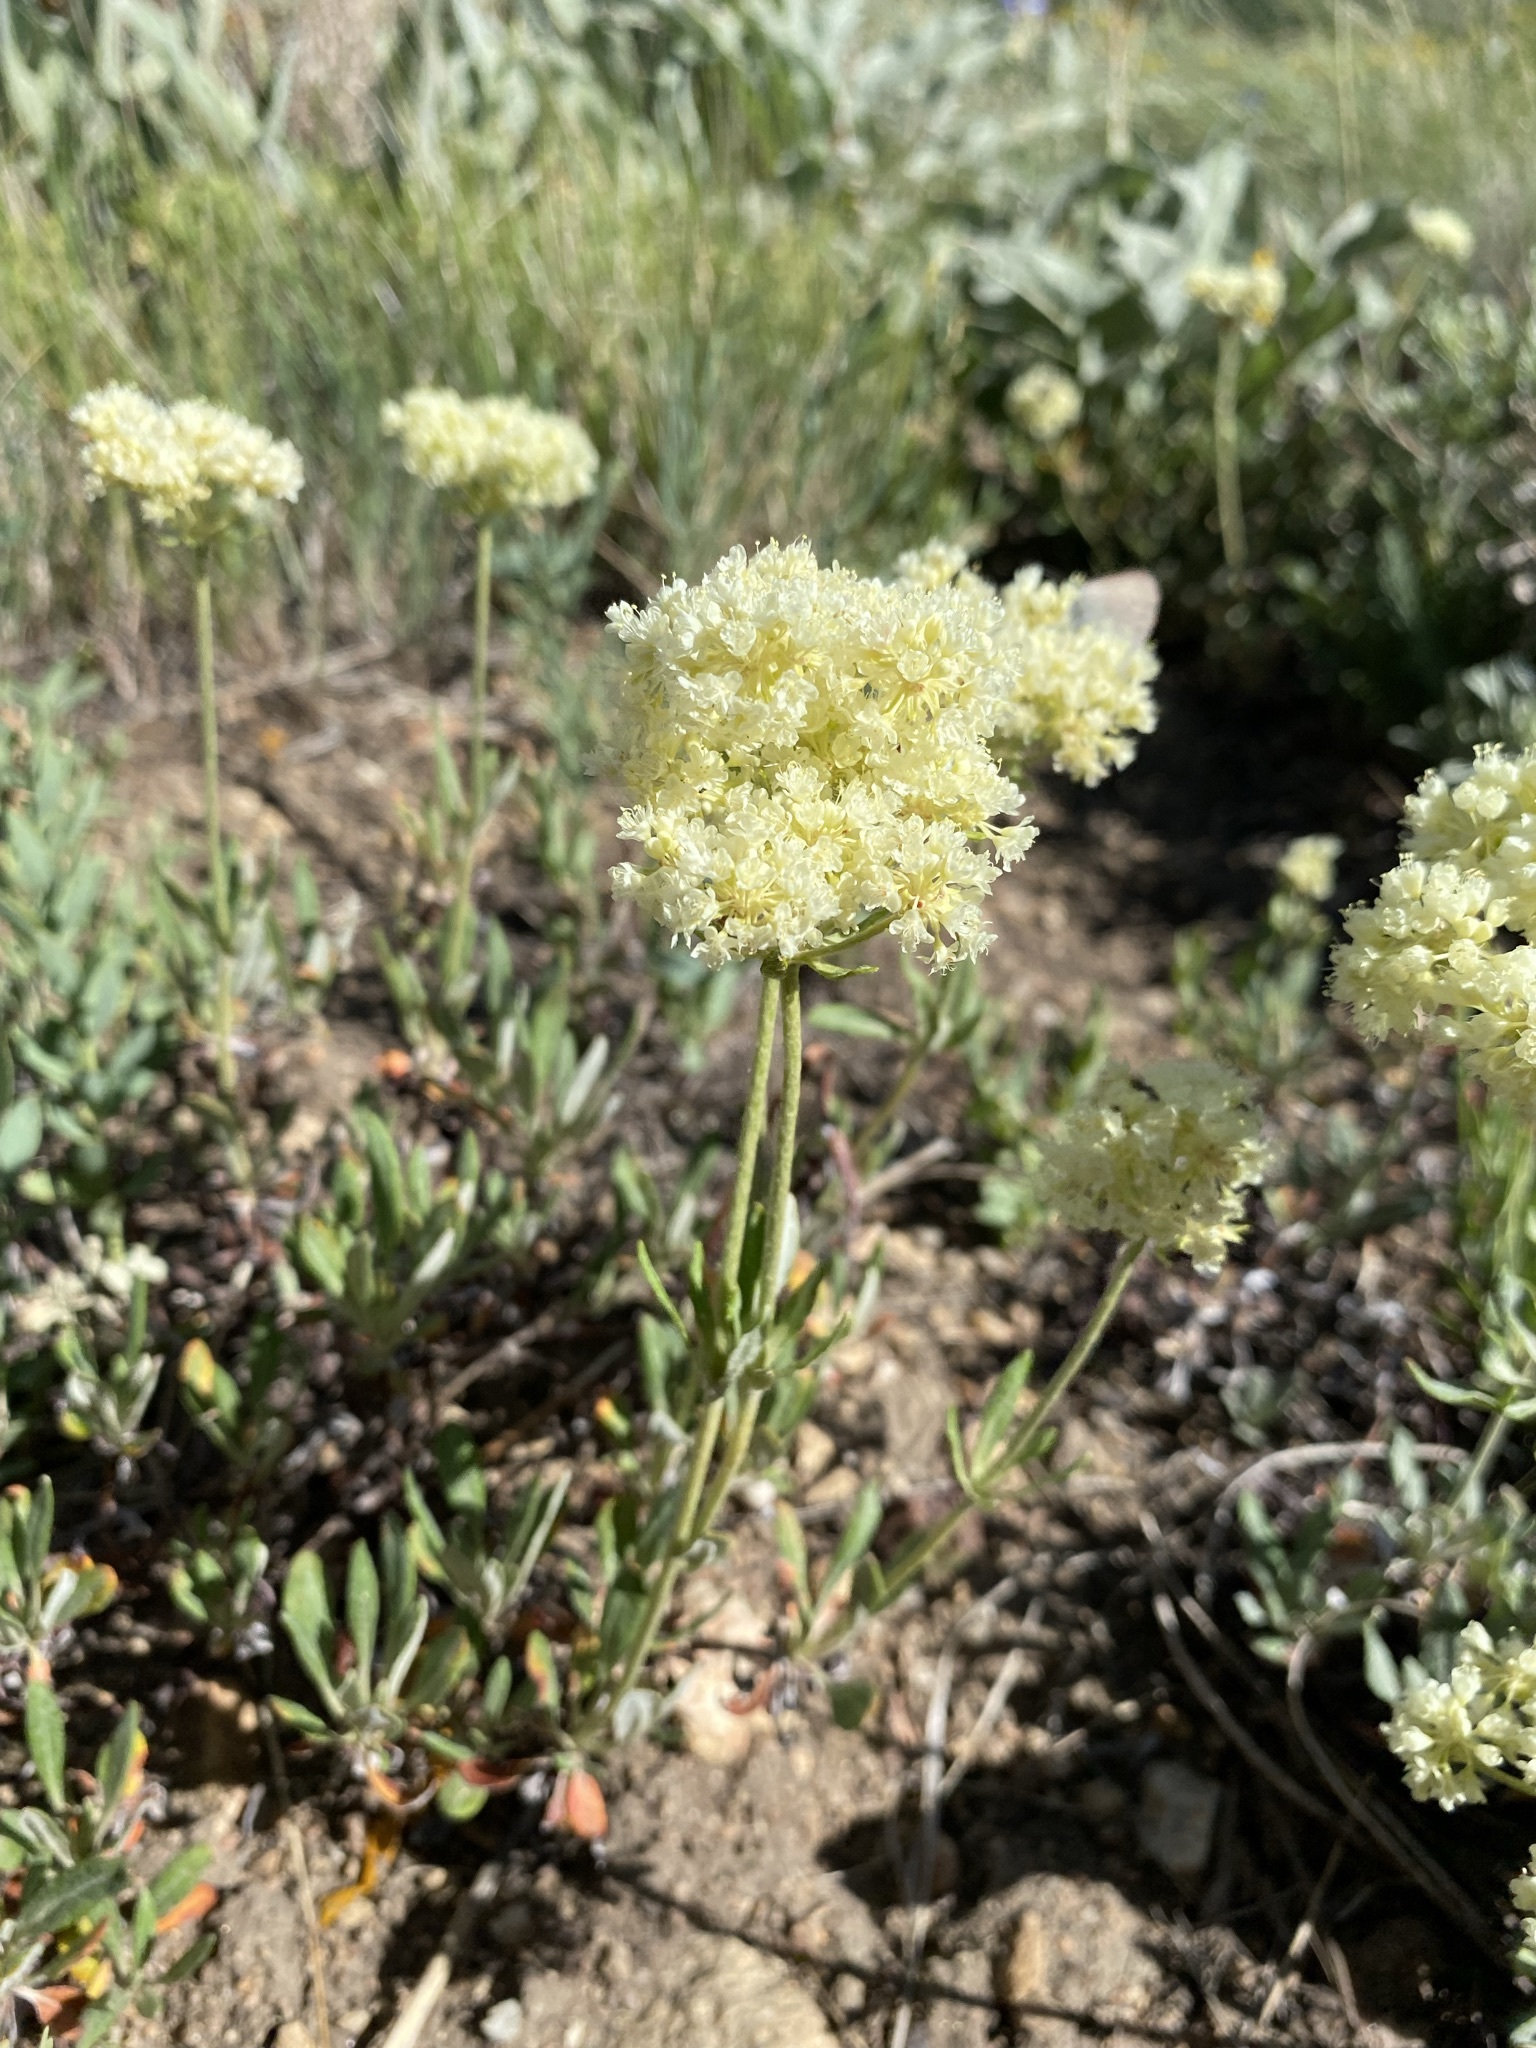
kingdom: Plantae
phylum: Tracheophyta
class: Magnoliopsida
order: Caryophyllales
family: Polygonaceae
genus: Eriogonum
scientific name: Eriogonum heracleoides
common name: Wyeth's buckwheat
